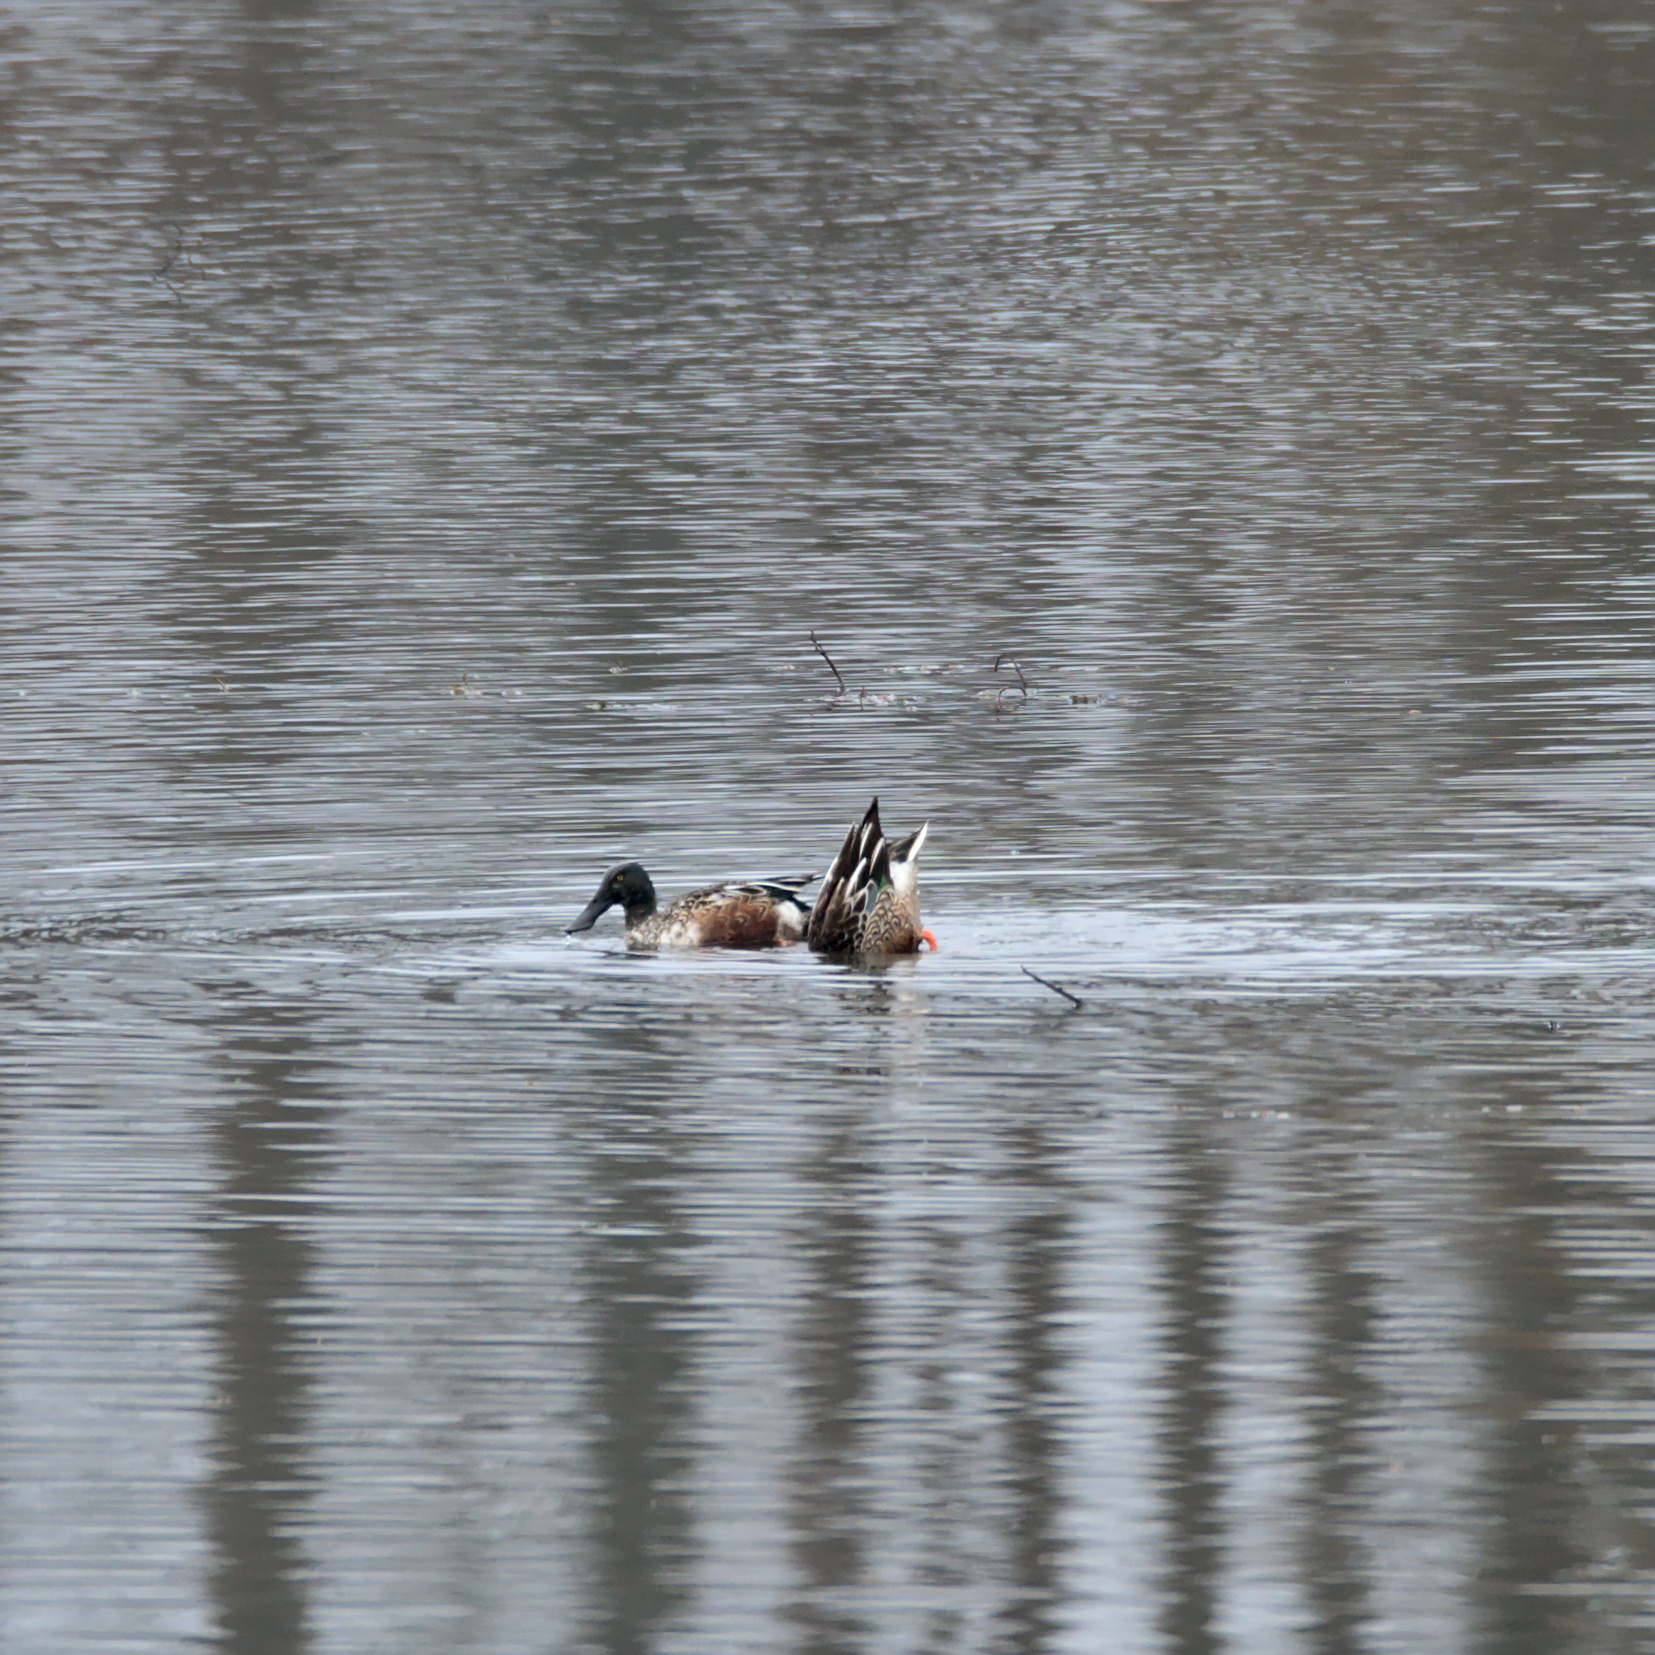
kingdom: Animalia
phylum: Chordata
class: Aves
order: Anseriformes
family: Anatidae
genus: Spatula
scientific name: Spatula clypeata
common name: Northern shoveler
